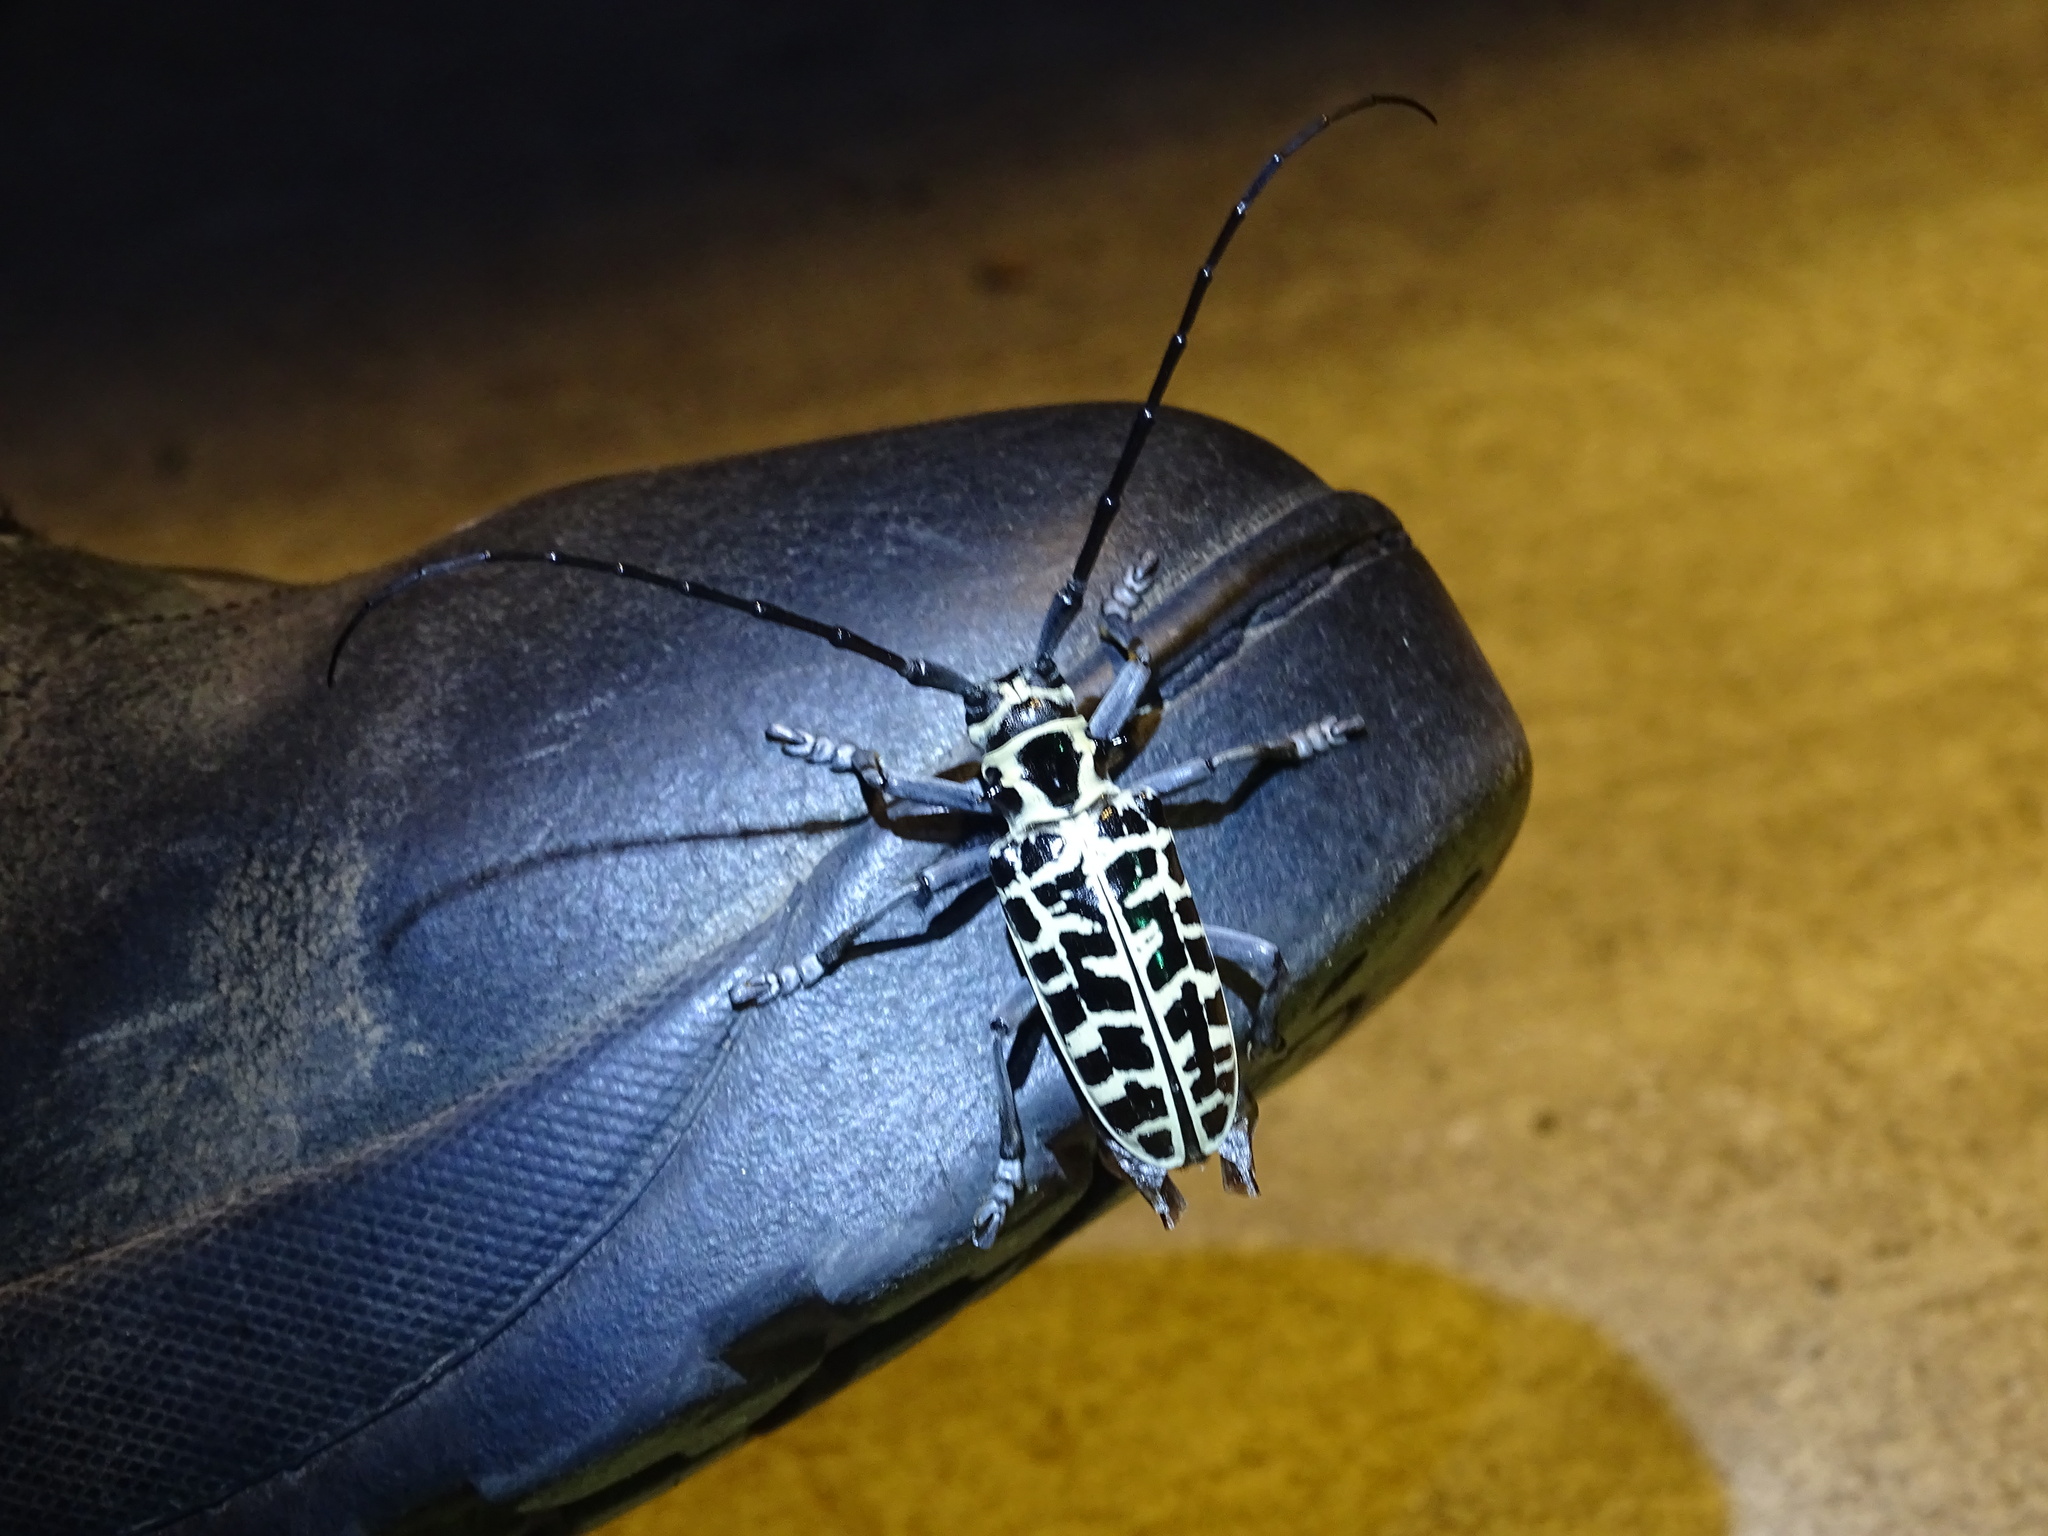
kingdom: Animalia
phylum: Arthropoda
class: Insecta
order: Coleoptera
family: Cerambycidae
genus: Plectrodera
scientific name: Plectrodera scalator
